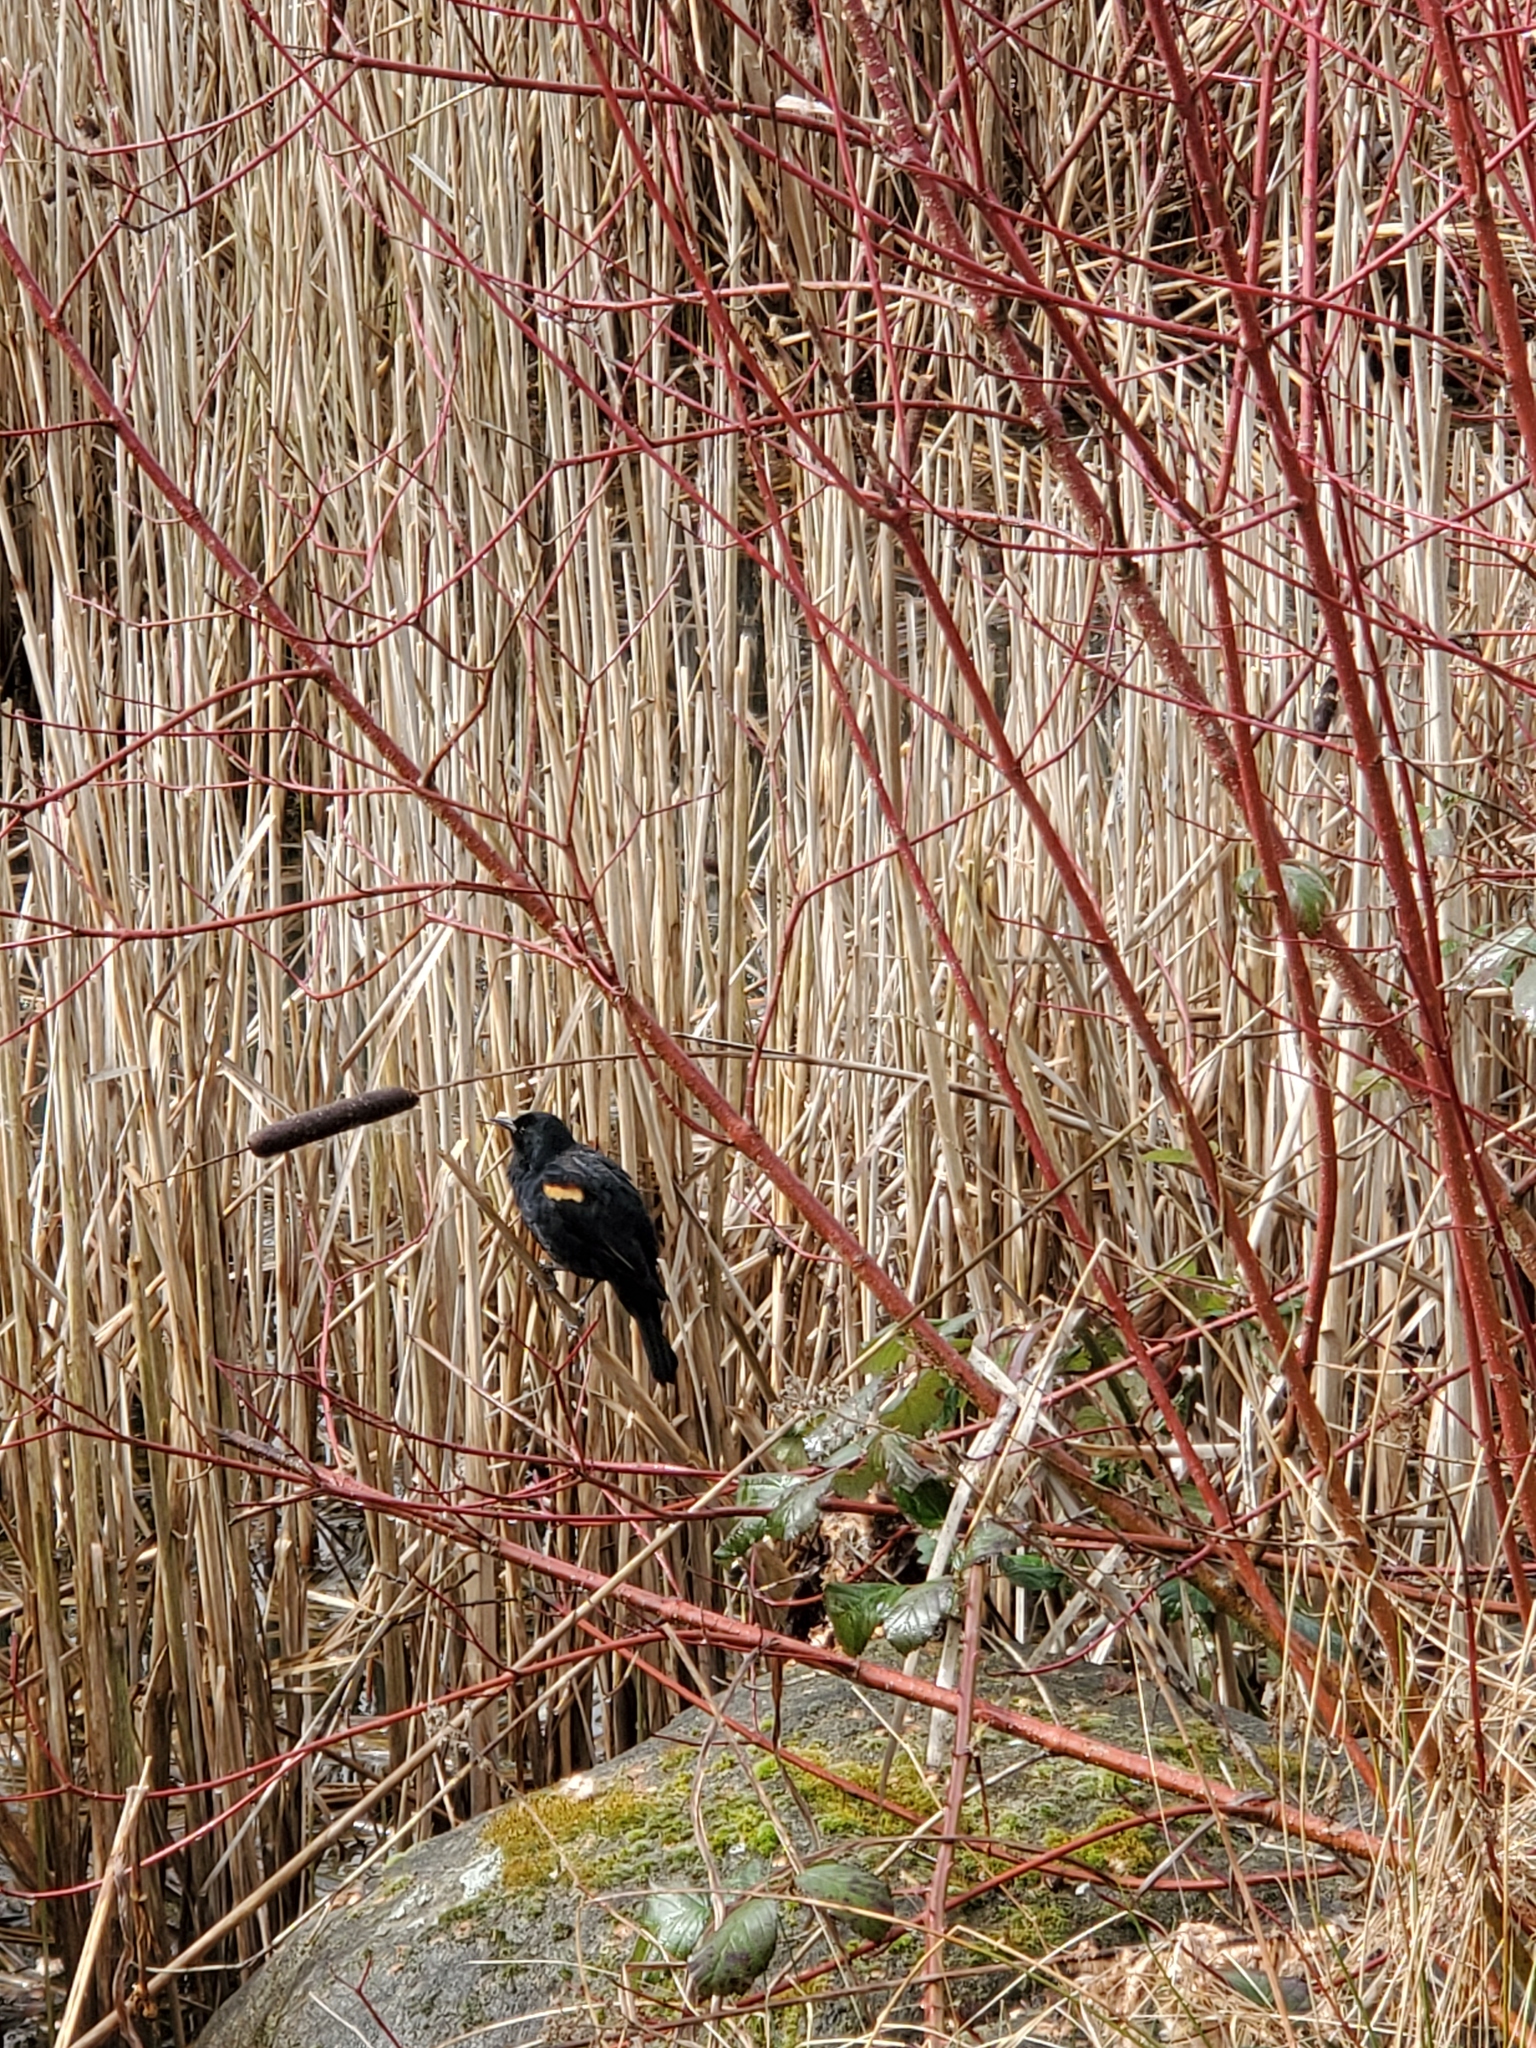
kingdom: Animalia
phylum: Chordata
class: Aves
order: Passeriformes
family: Icteridae
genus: Agelaius
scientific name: Agelaius phoeniceus
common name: Red-winged blackbird
